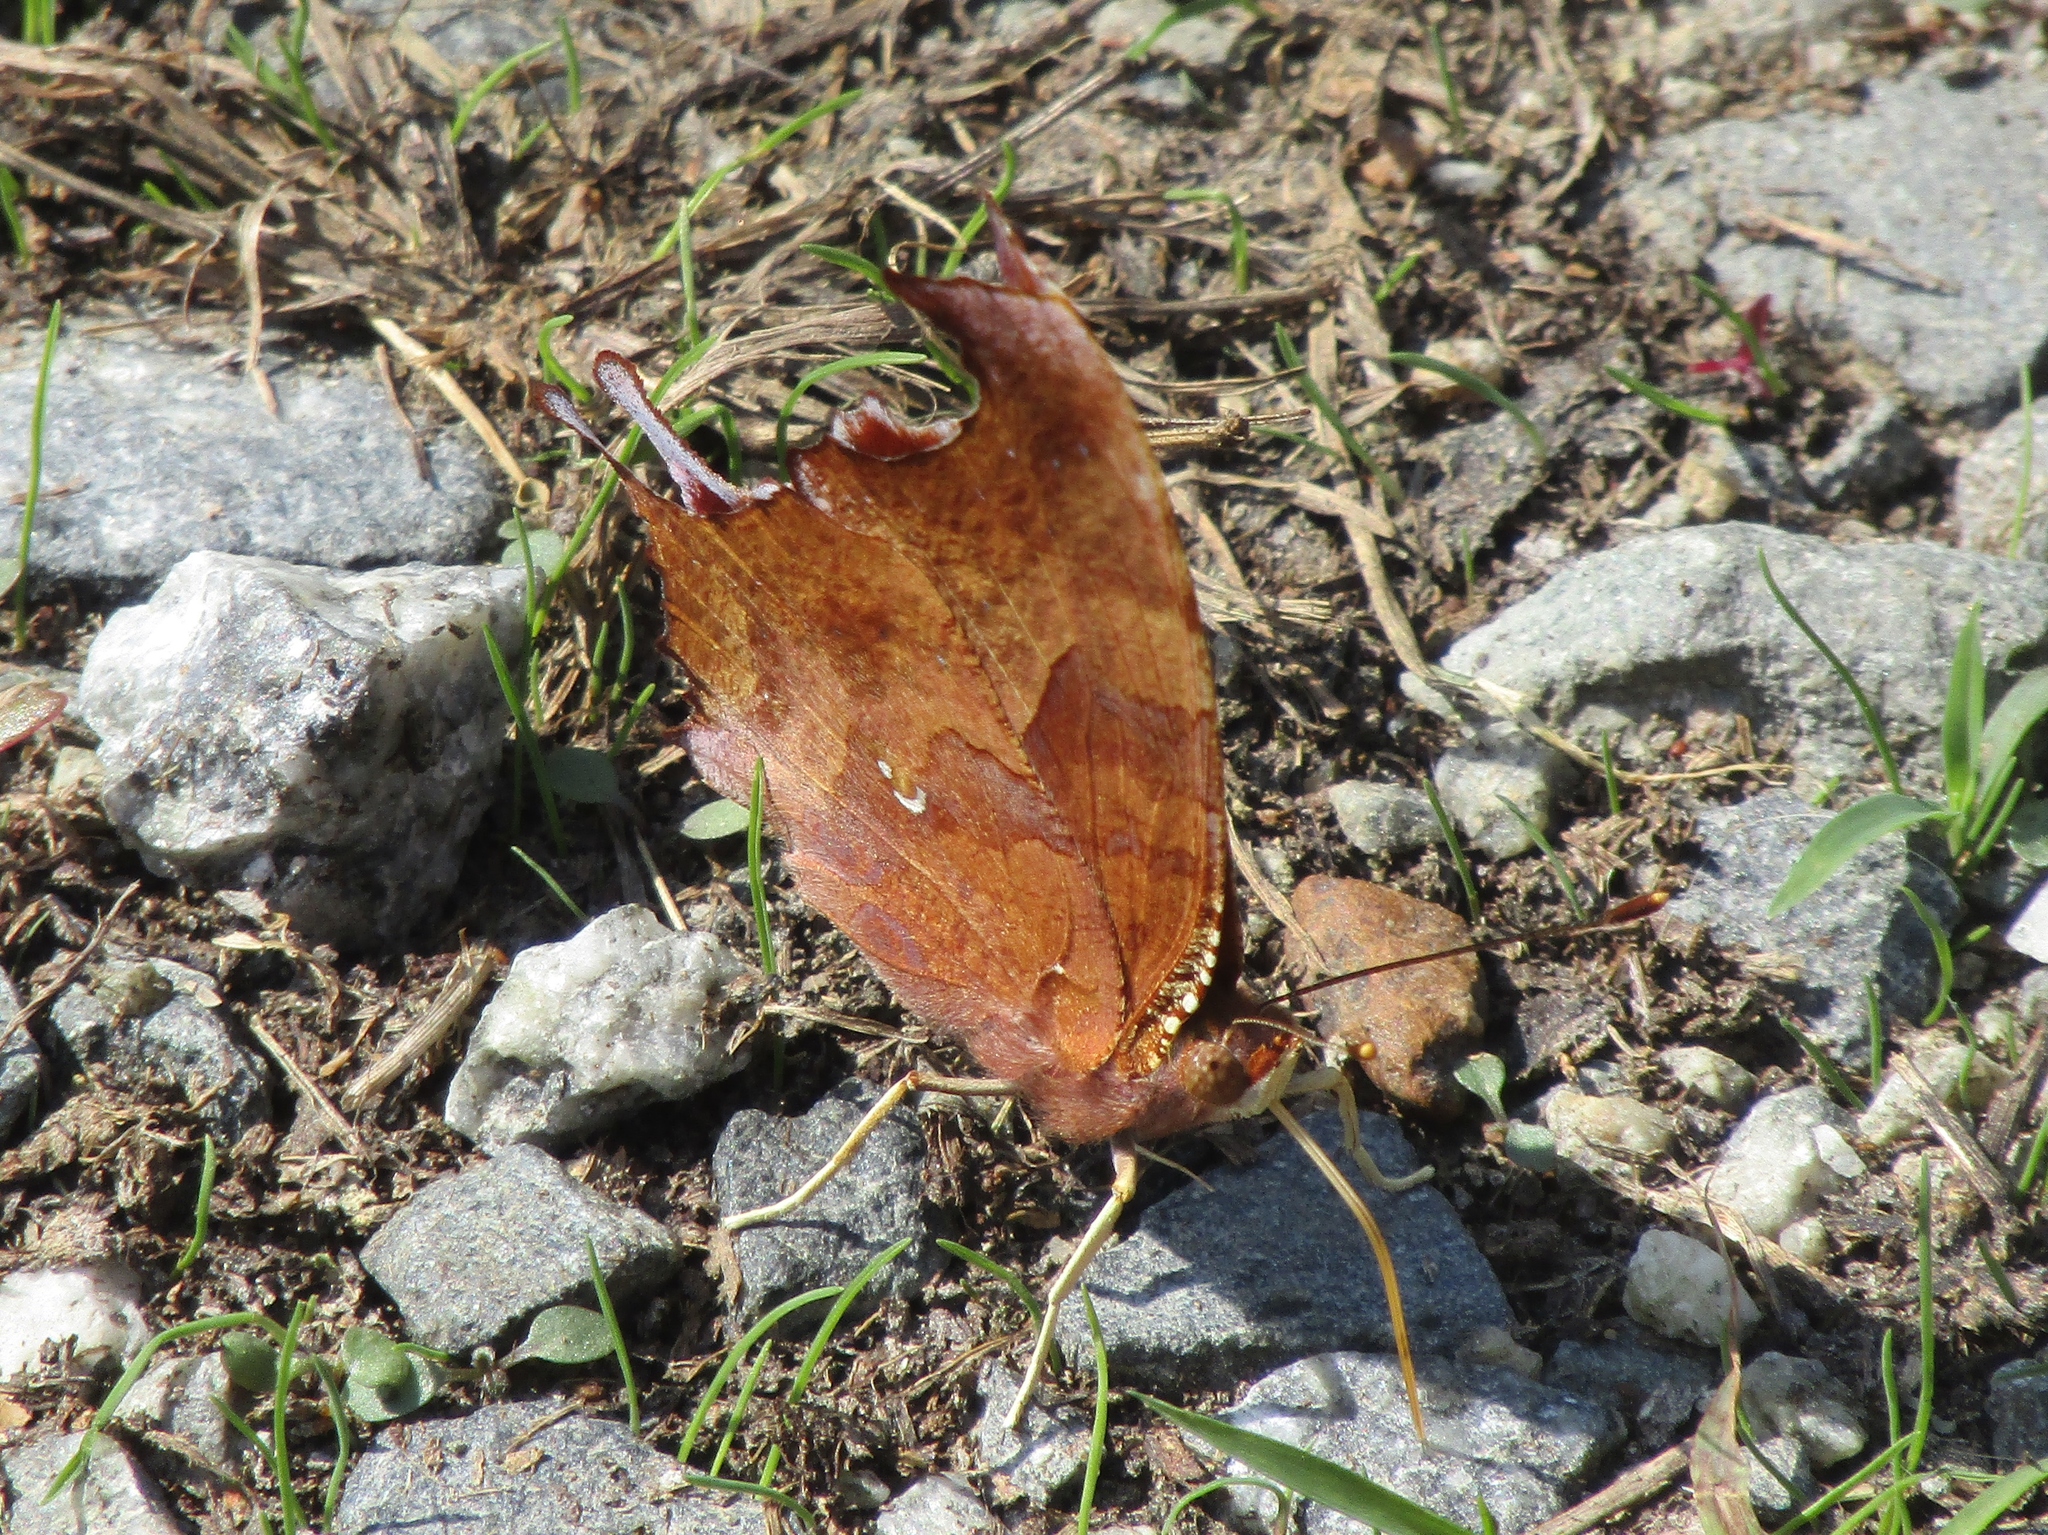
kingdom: Animalia
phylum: Arthropoda
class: Insecta
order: Lepidoptera
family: Nymphalidae
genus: Polygonia
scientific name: Polygonia interrogationis
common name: Question mark
